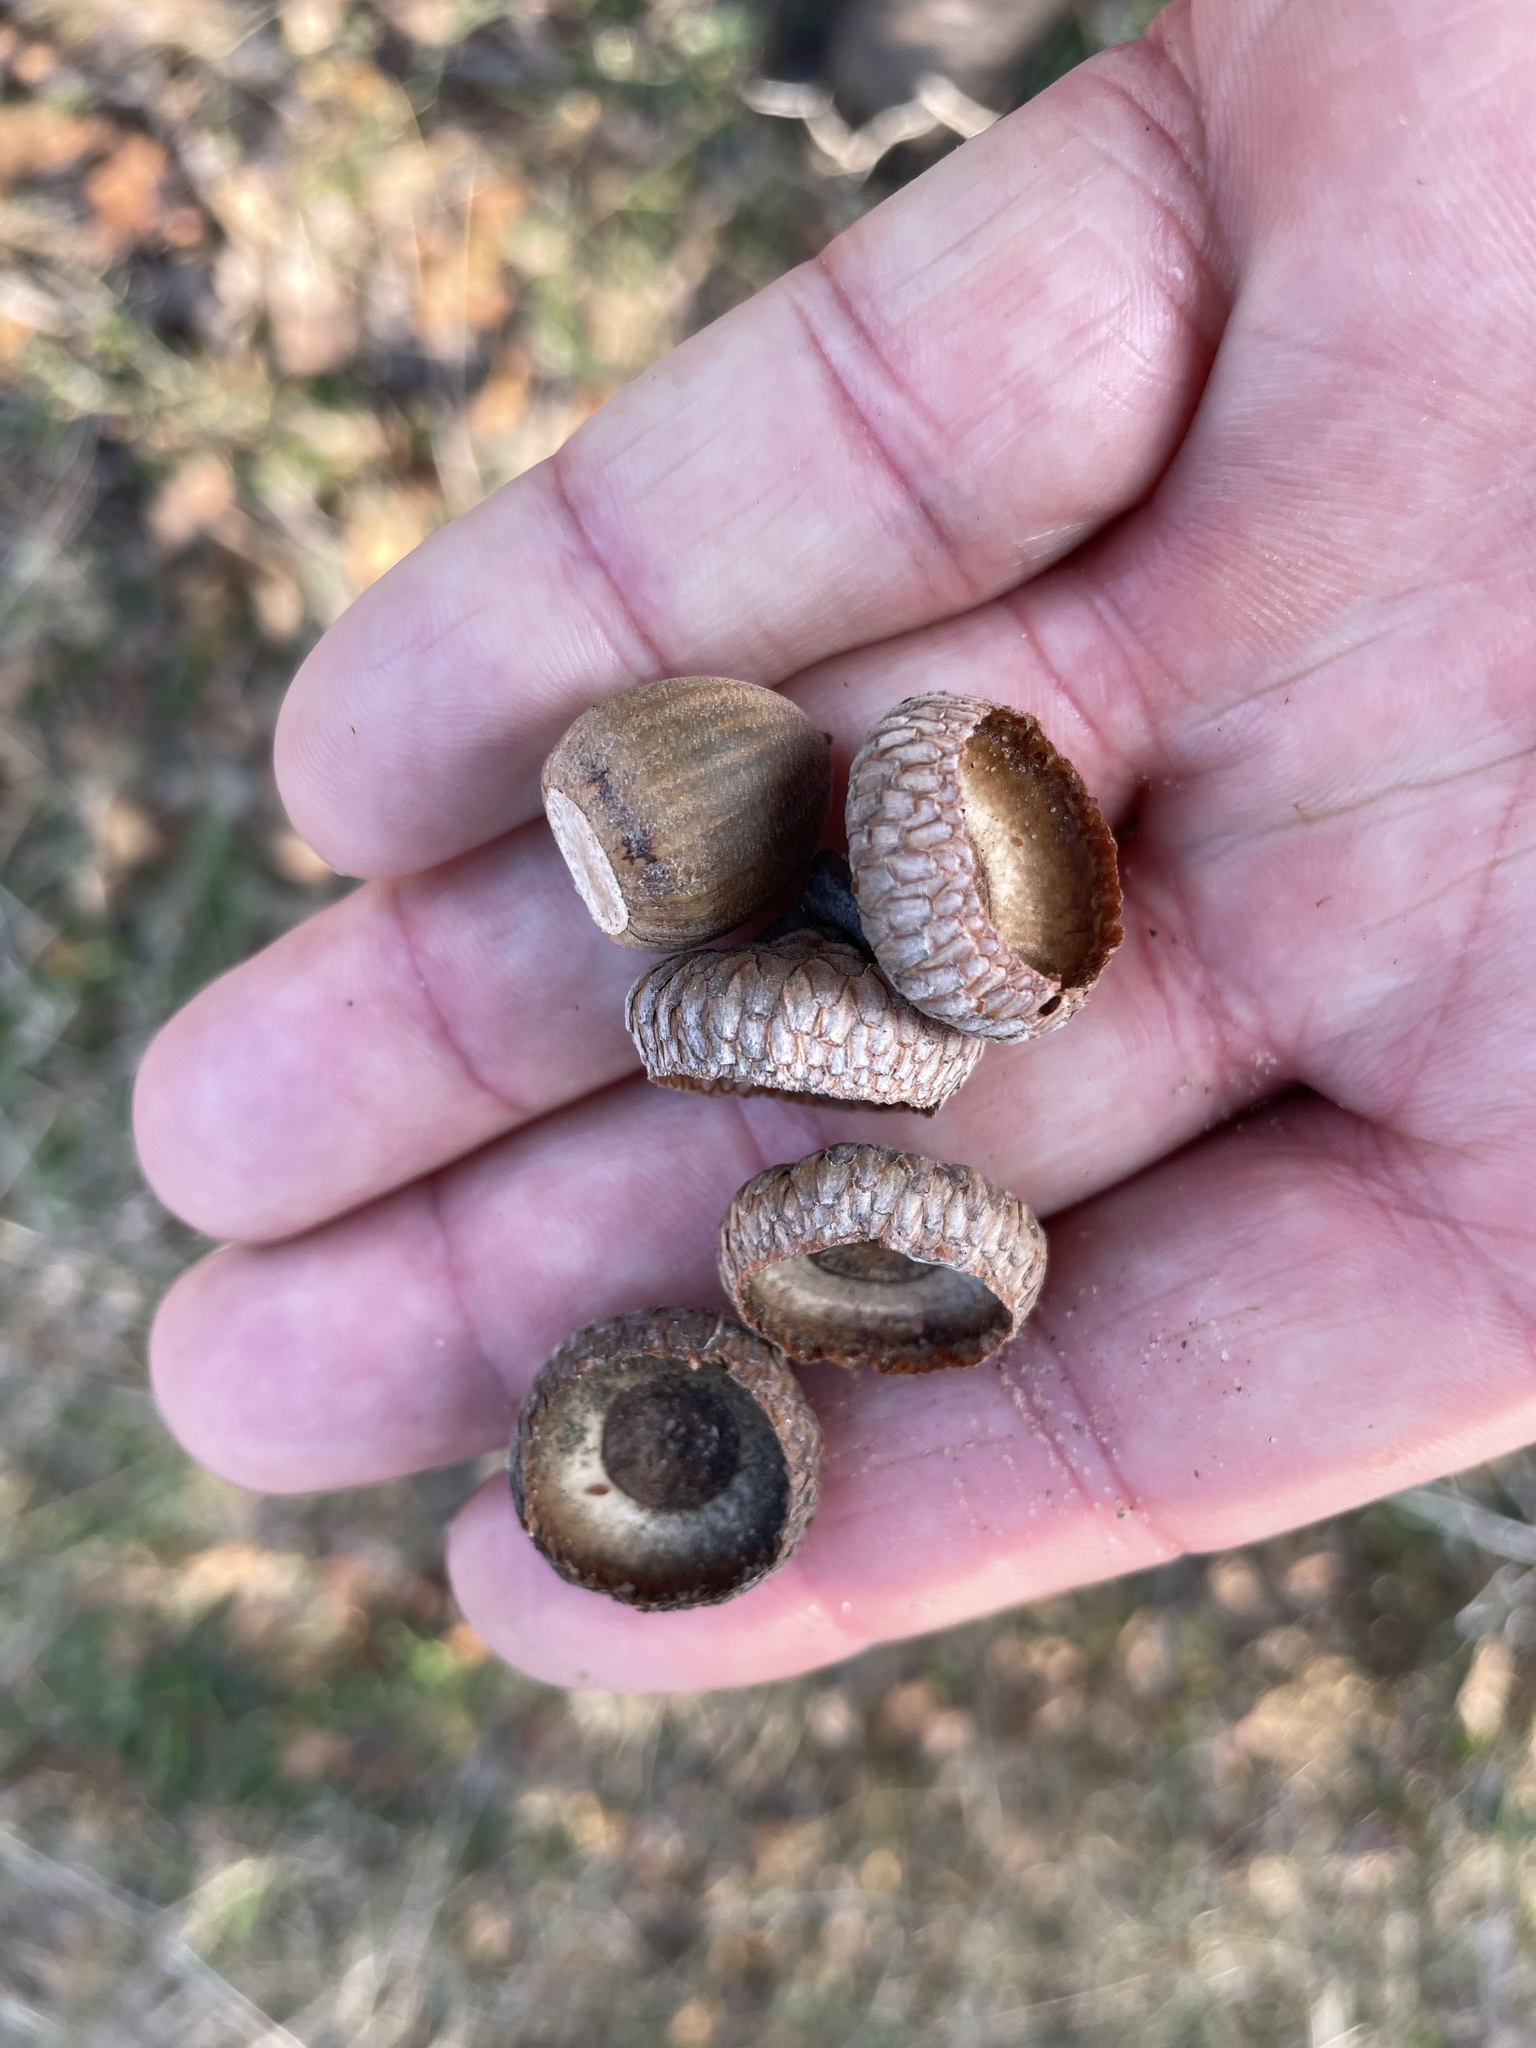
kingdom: Plantae
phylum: Tracheophyta
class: Magnoliopsida
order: Fagales
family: Fagaceae
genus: Quercus
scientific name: Quercus marilandica
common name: Blackjack oak
